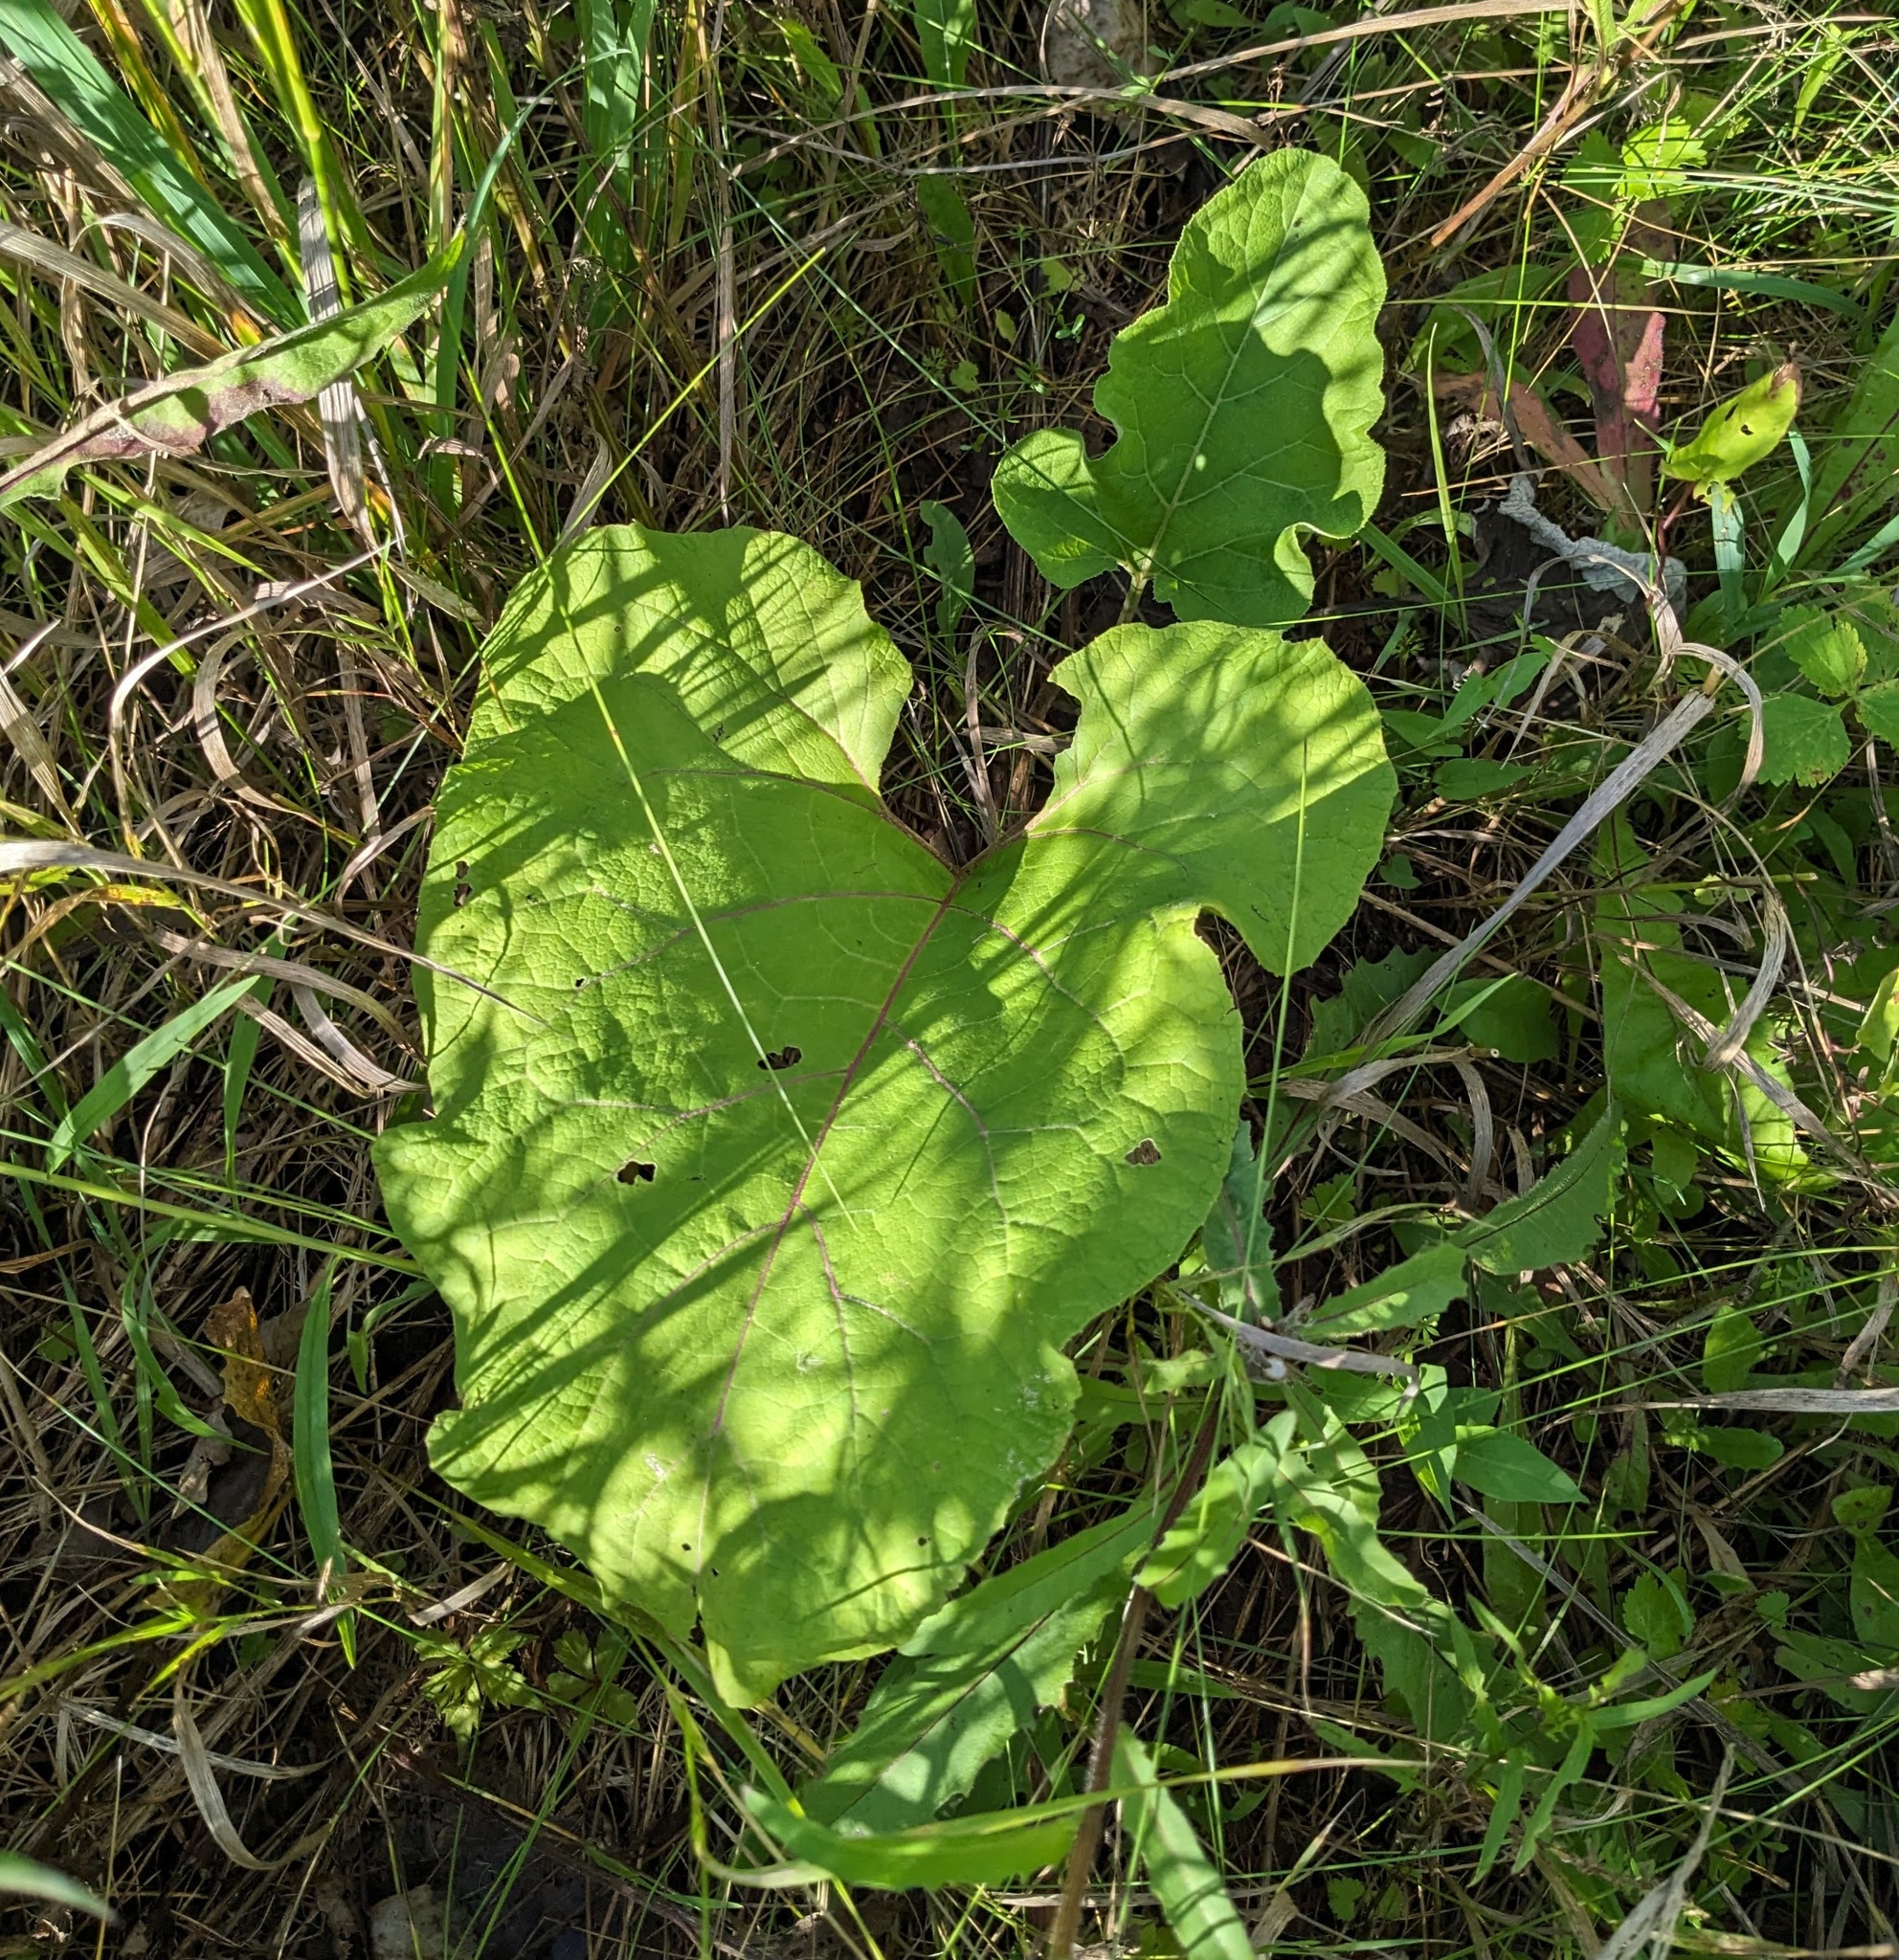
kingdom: Plantae
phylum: Tracheophyta
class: Magnoliopsida
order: Asterales
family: Asteraceae
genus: Arctium
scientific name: Arctium
